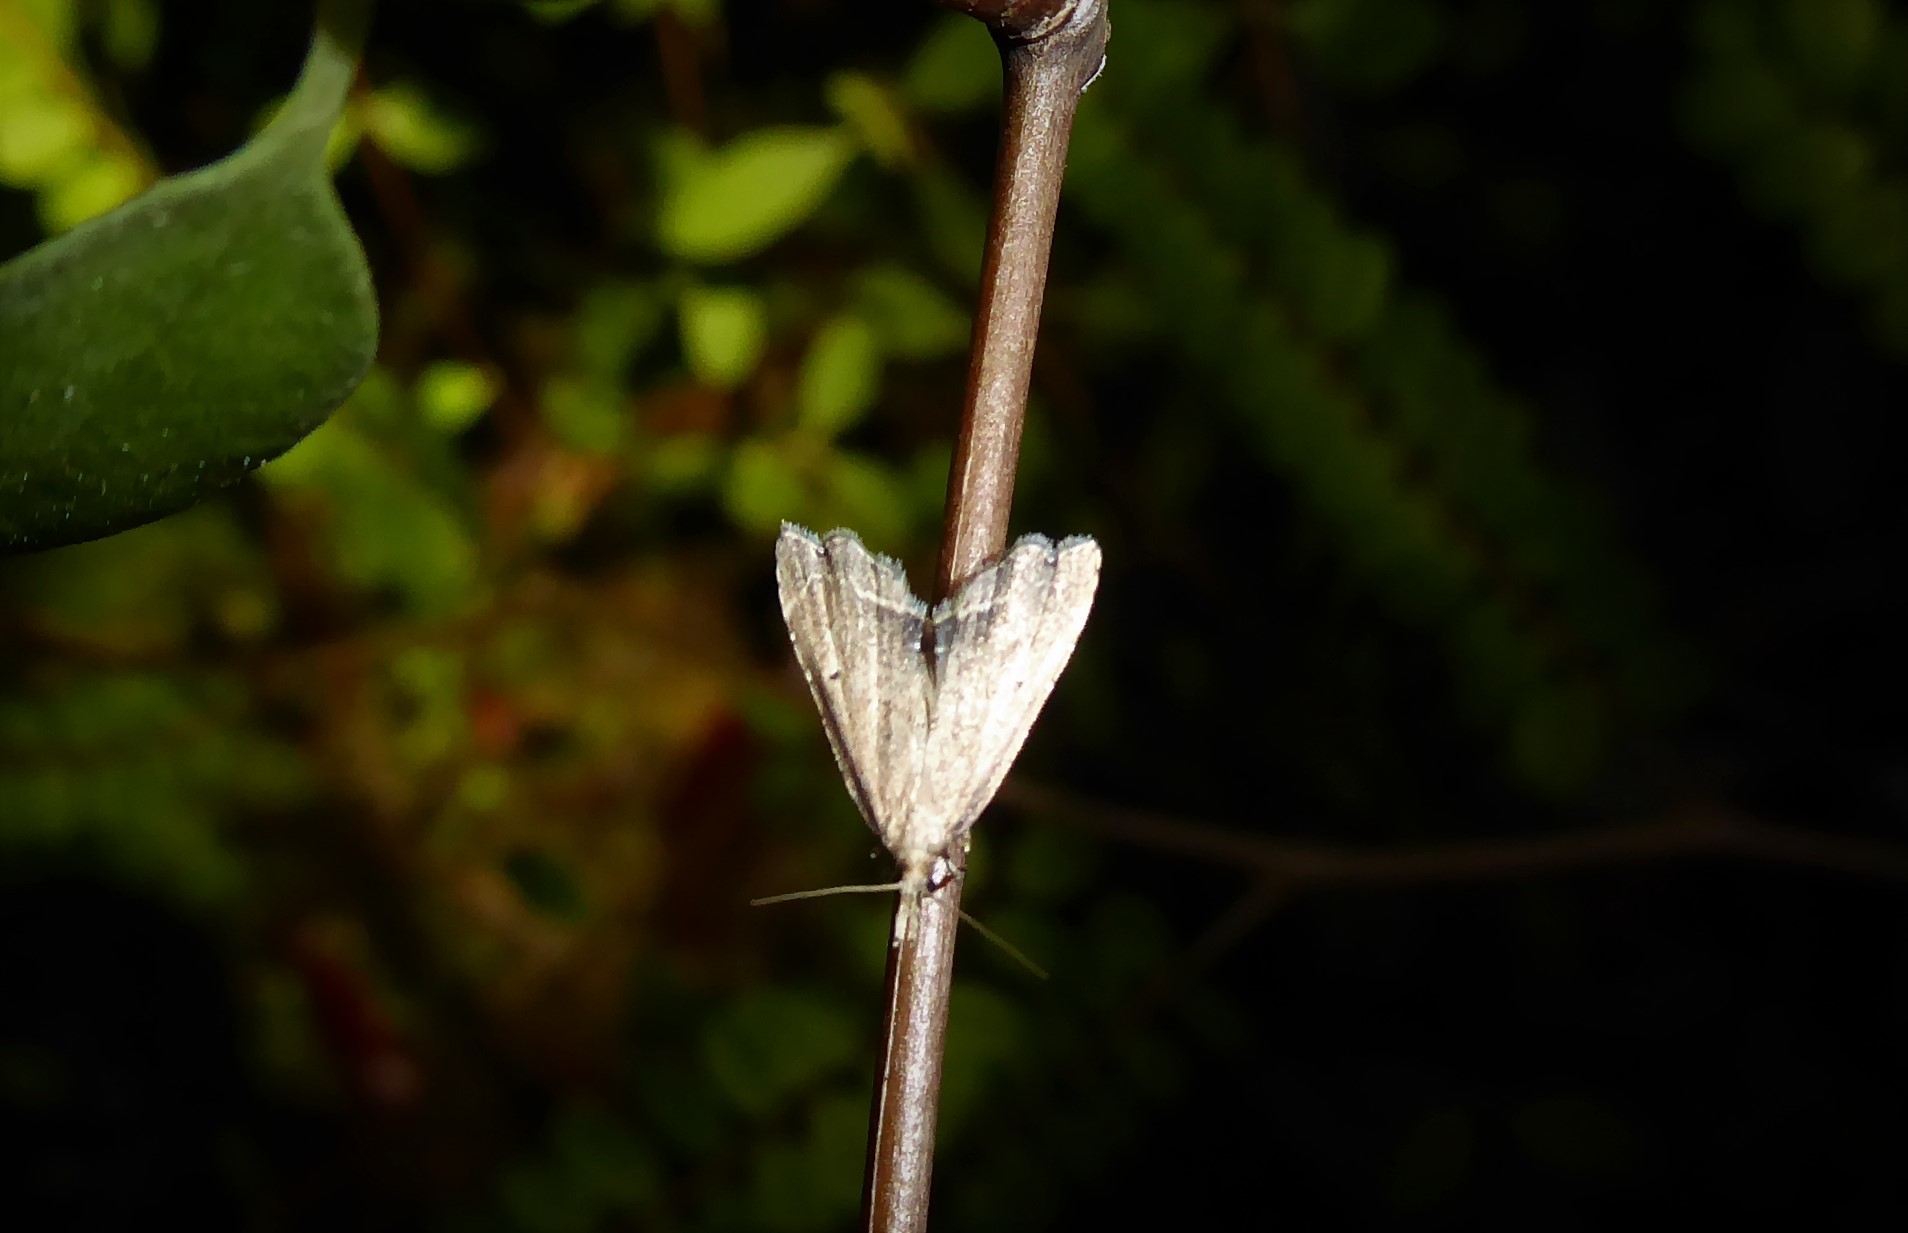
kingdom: Animalia
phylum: Arthropoda
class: Insecta
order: Lepidoptera
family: Crambidae
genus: Diplopseustis
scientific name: Diplopseustis perieresalis
